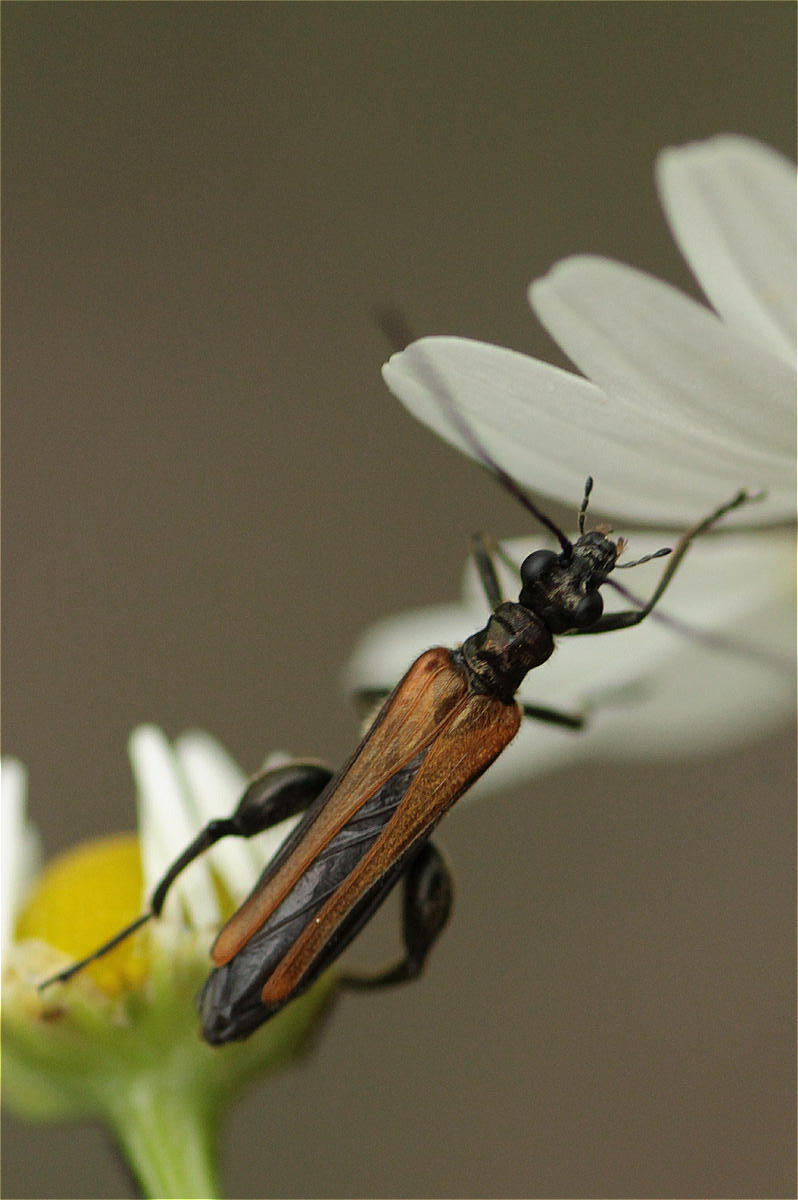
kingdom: Animalia
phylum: Arthropoda
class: Insecta
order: Coleoptera
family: Oedemeridae
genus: Oedemera
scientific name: Oedemera femorata
